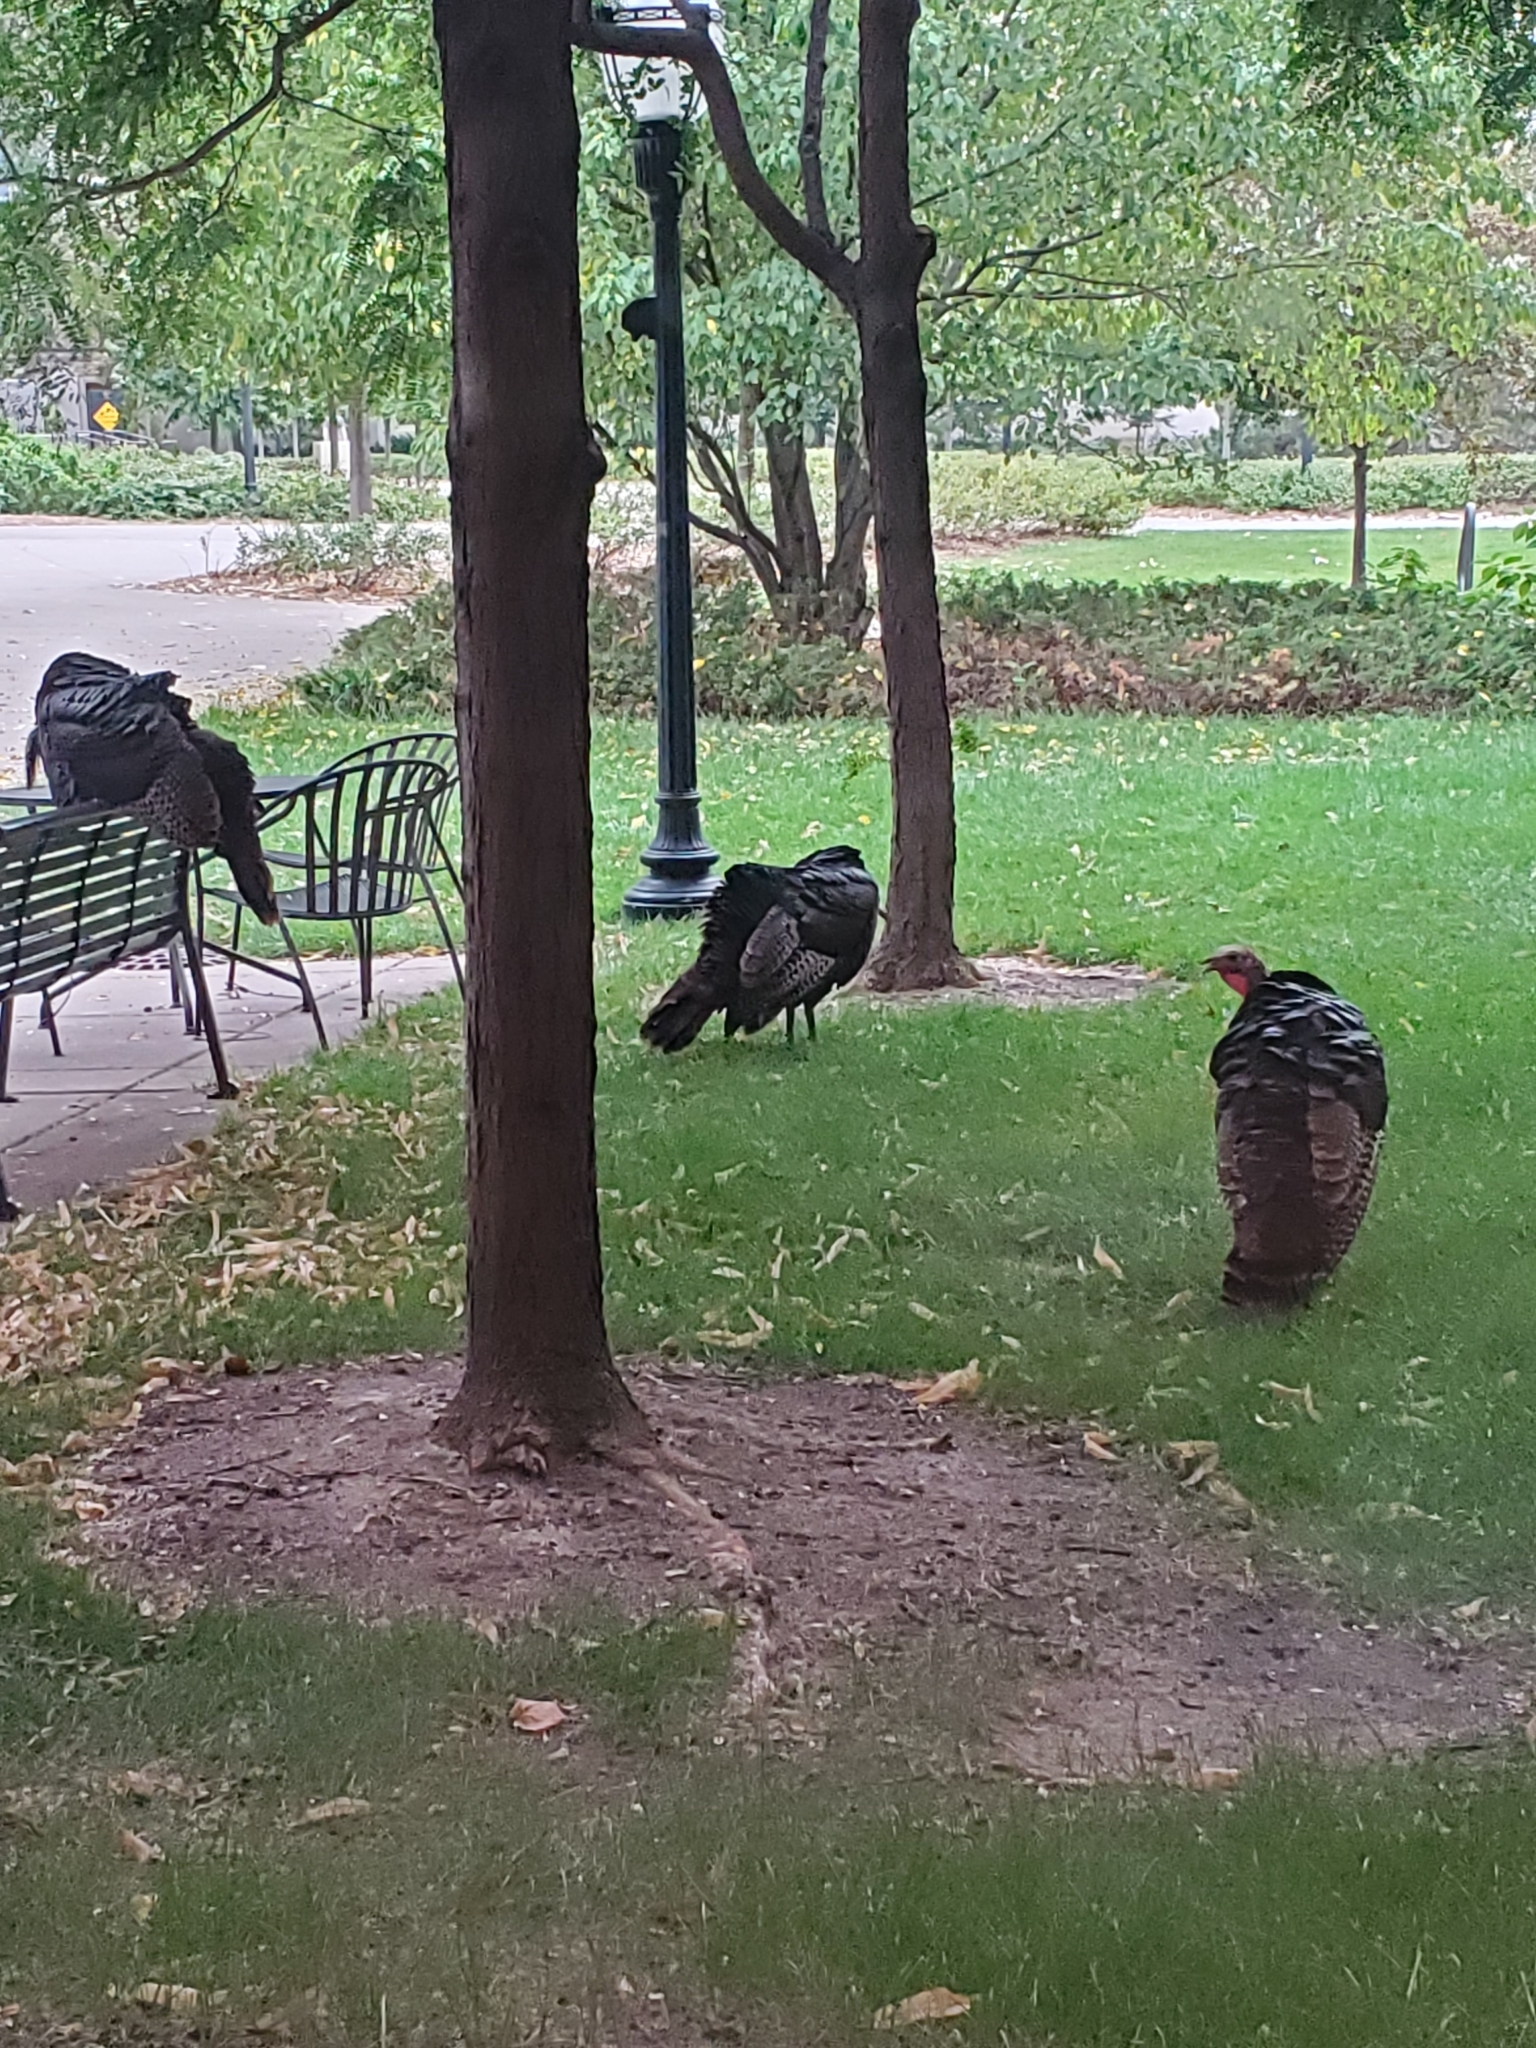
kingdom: Animalia
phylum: Chordata
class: Aves
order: Galliformes
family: Phasianidae
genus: Meleagris
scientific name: Meleagris gallopavo
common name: Wild turkey
